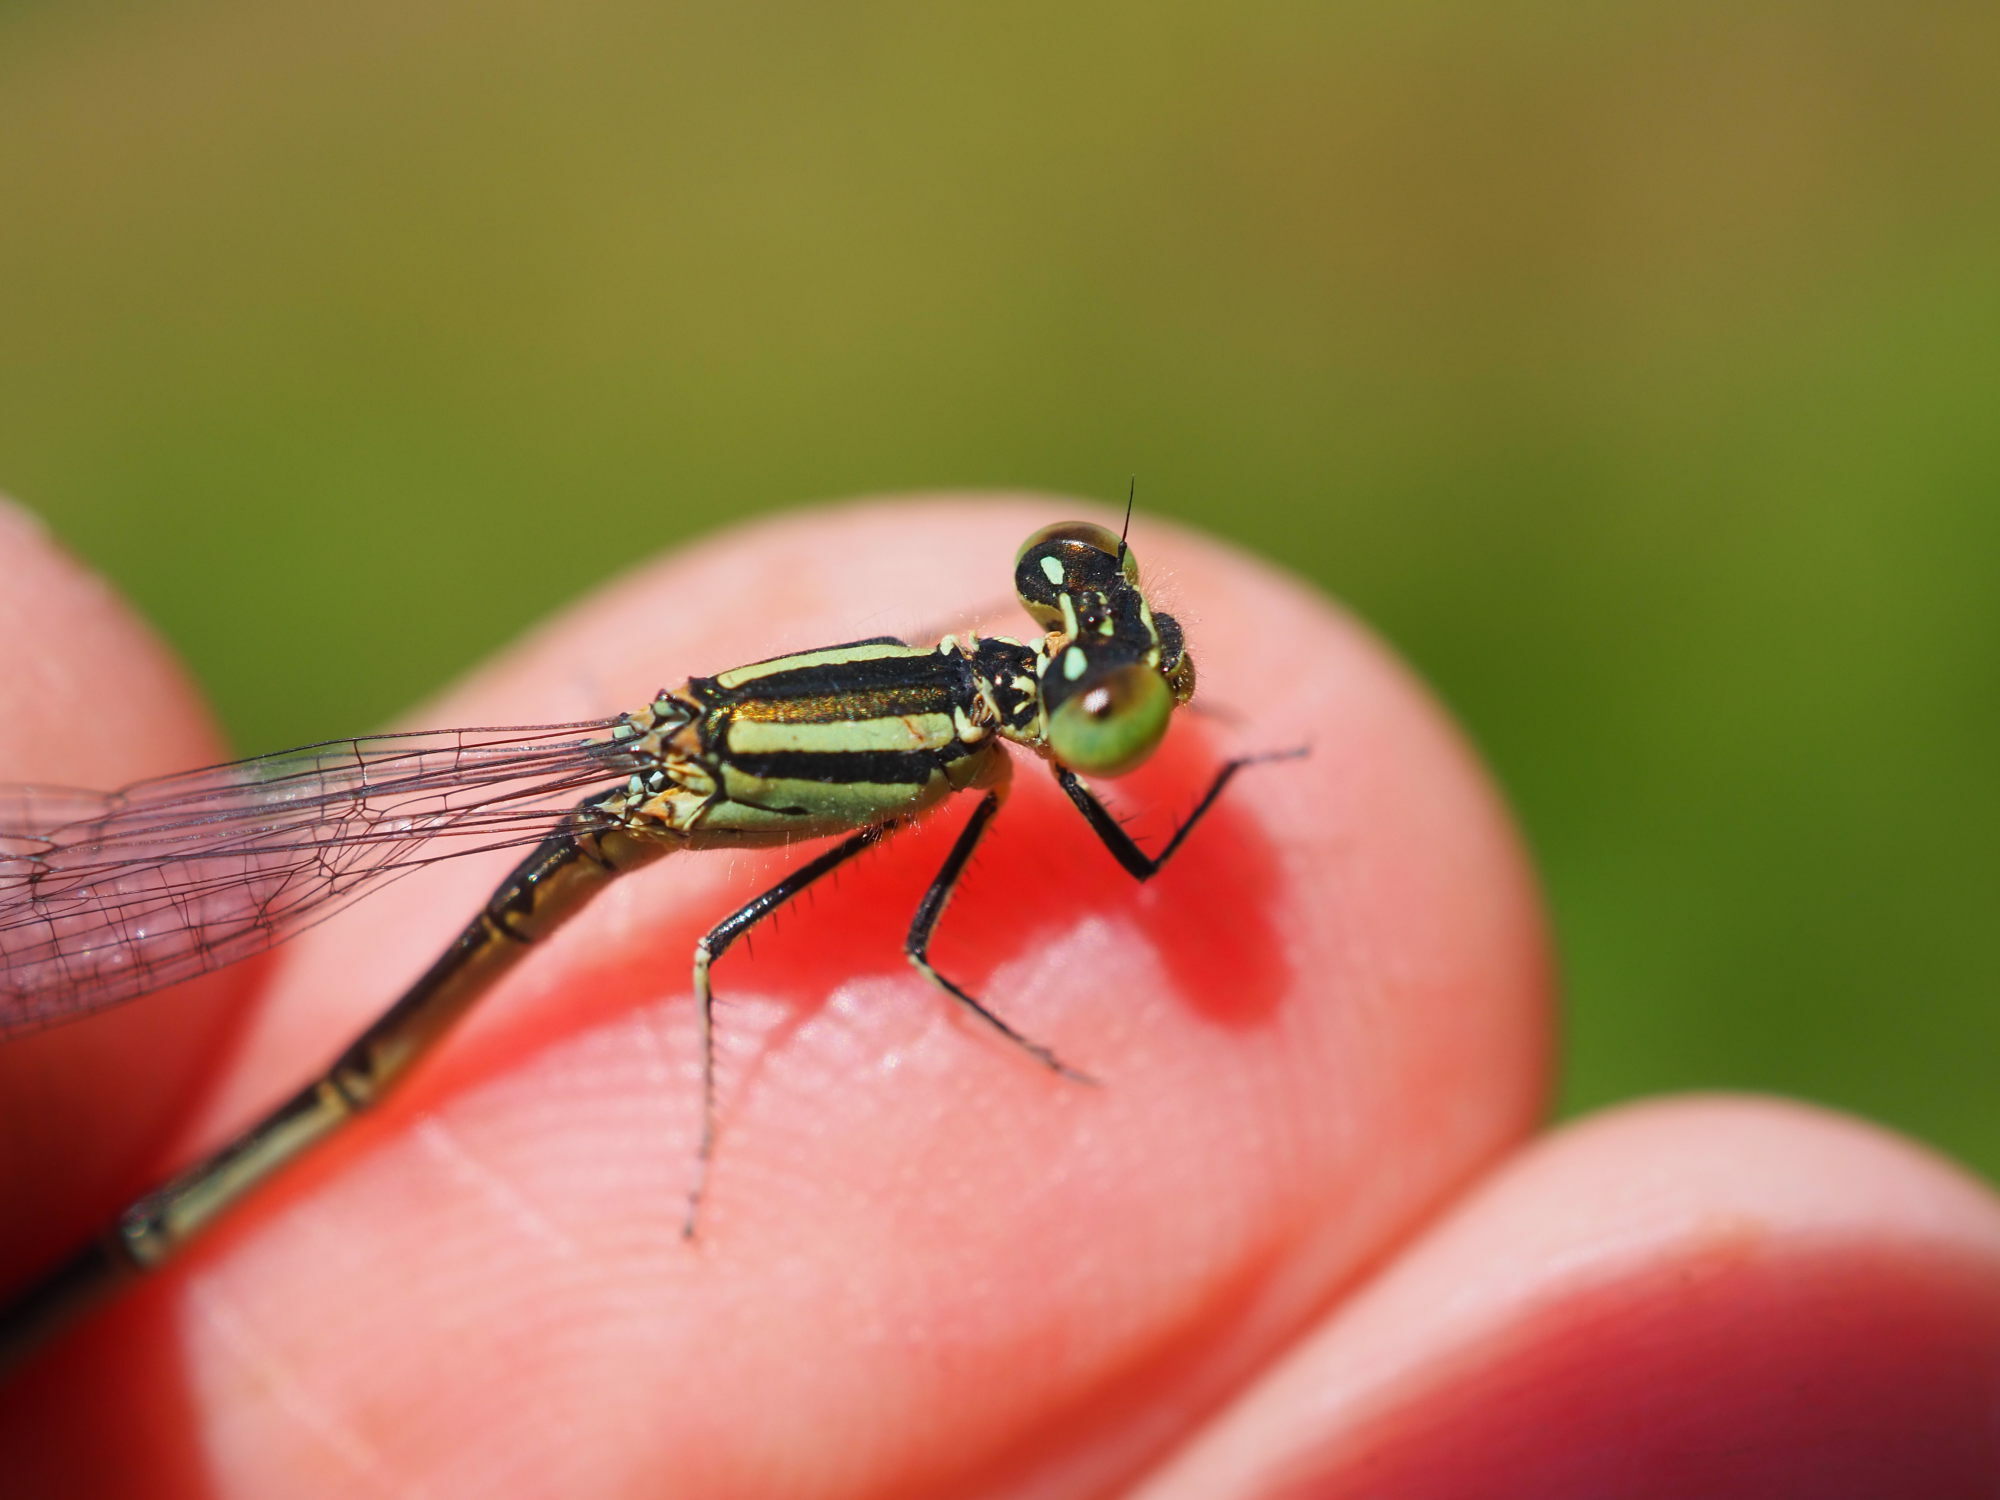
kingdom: Animalia
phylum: Arthropoda
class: Insecta
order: Odonata
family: Coenagrionidae
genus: Erythromma
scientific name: Erythromma lindenii
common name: Blue-eye
